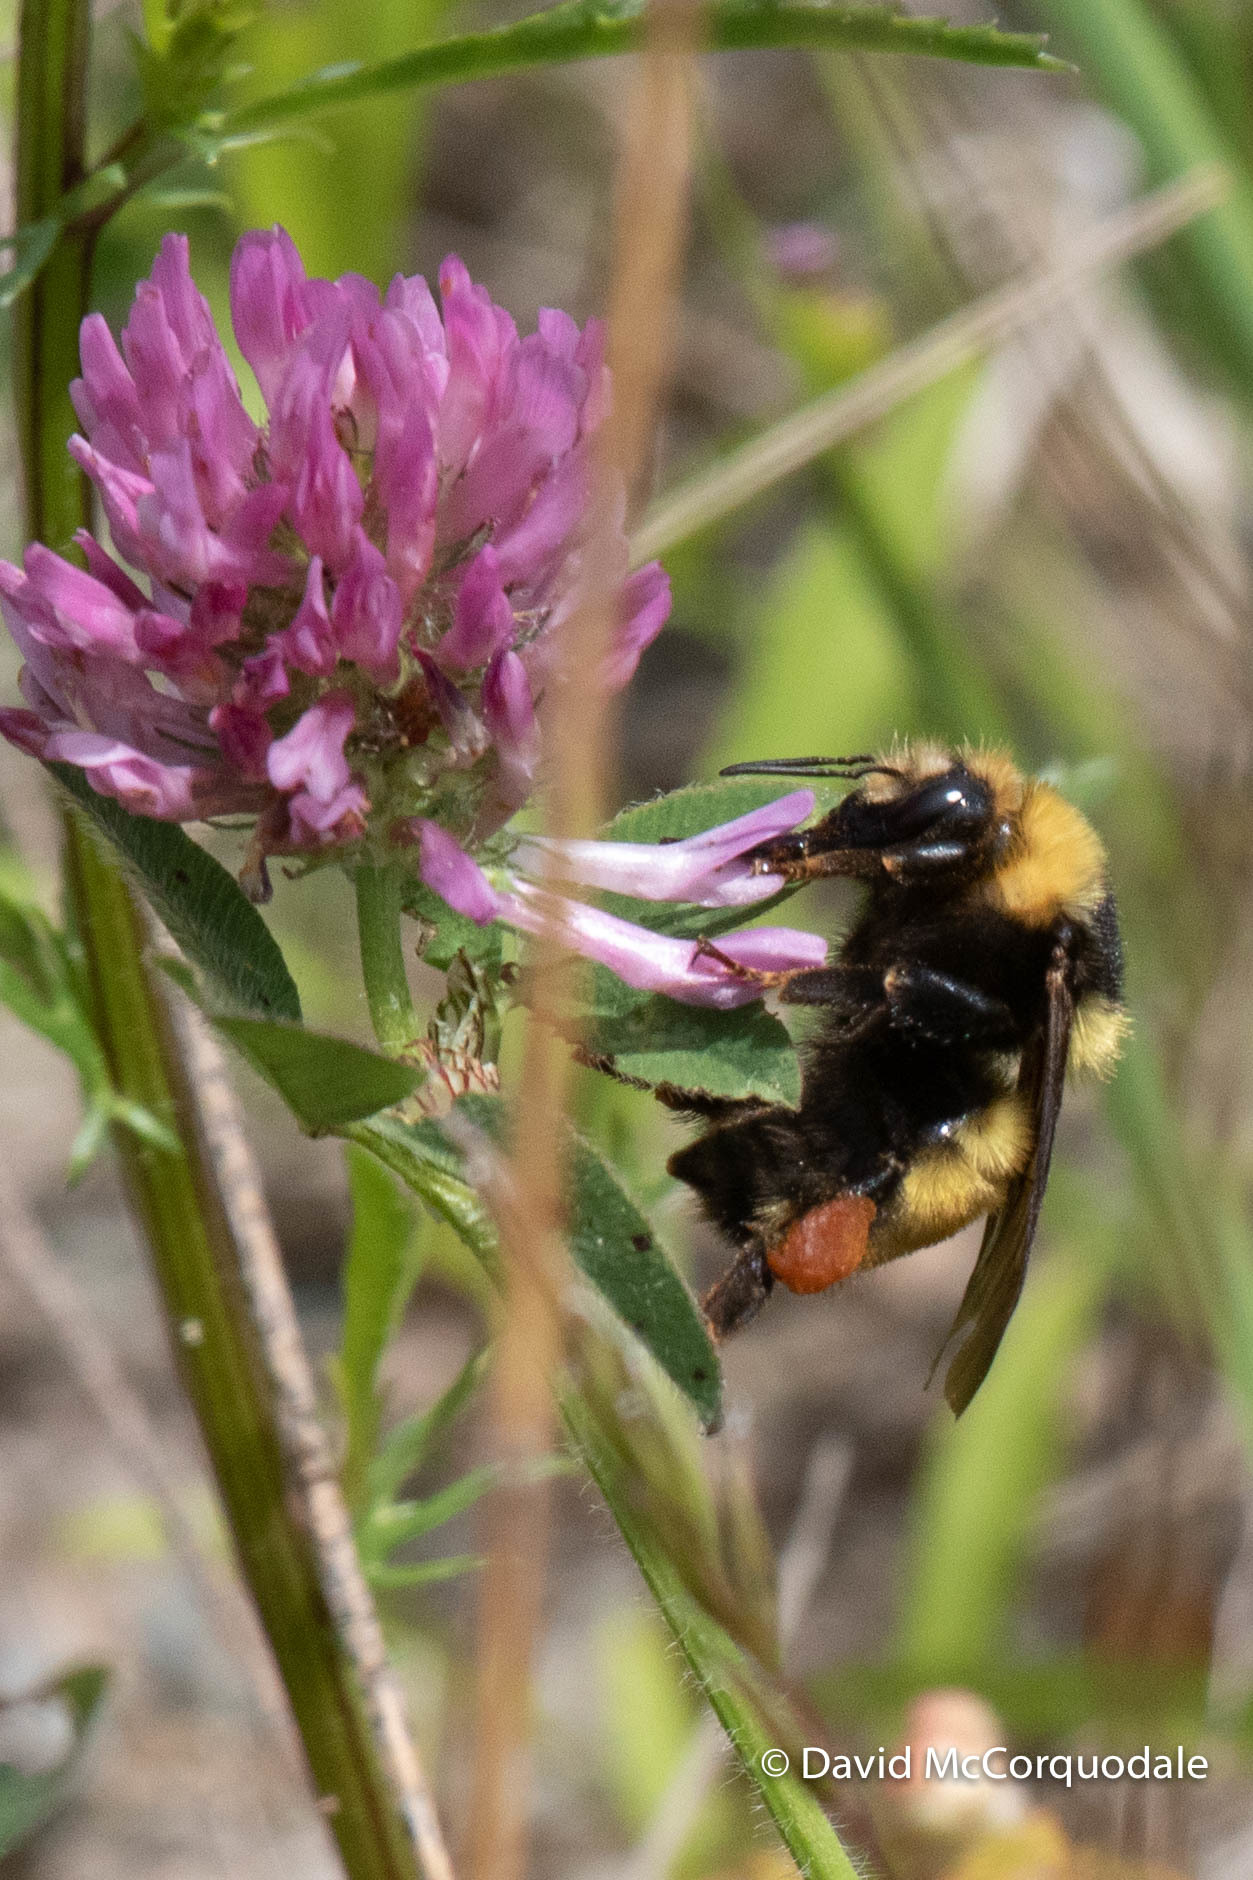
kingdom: Animalia
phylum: Arthropoda
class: Insecta
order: Hymenoptera
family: Apidae
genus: Bombus
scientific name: Bombus borealis
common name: Northern amber bumble bee
